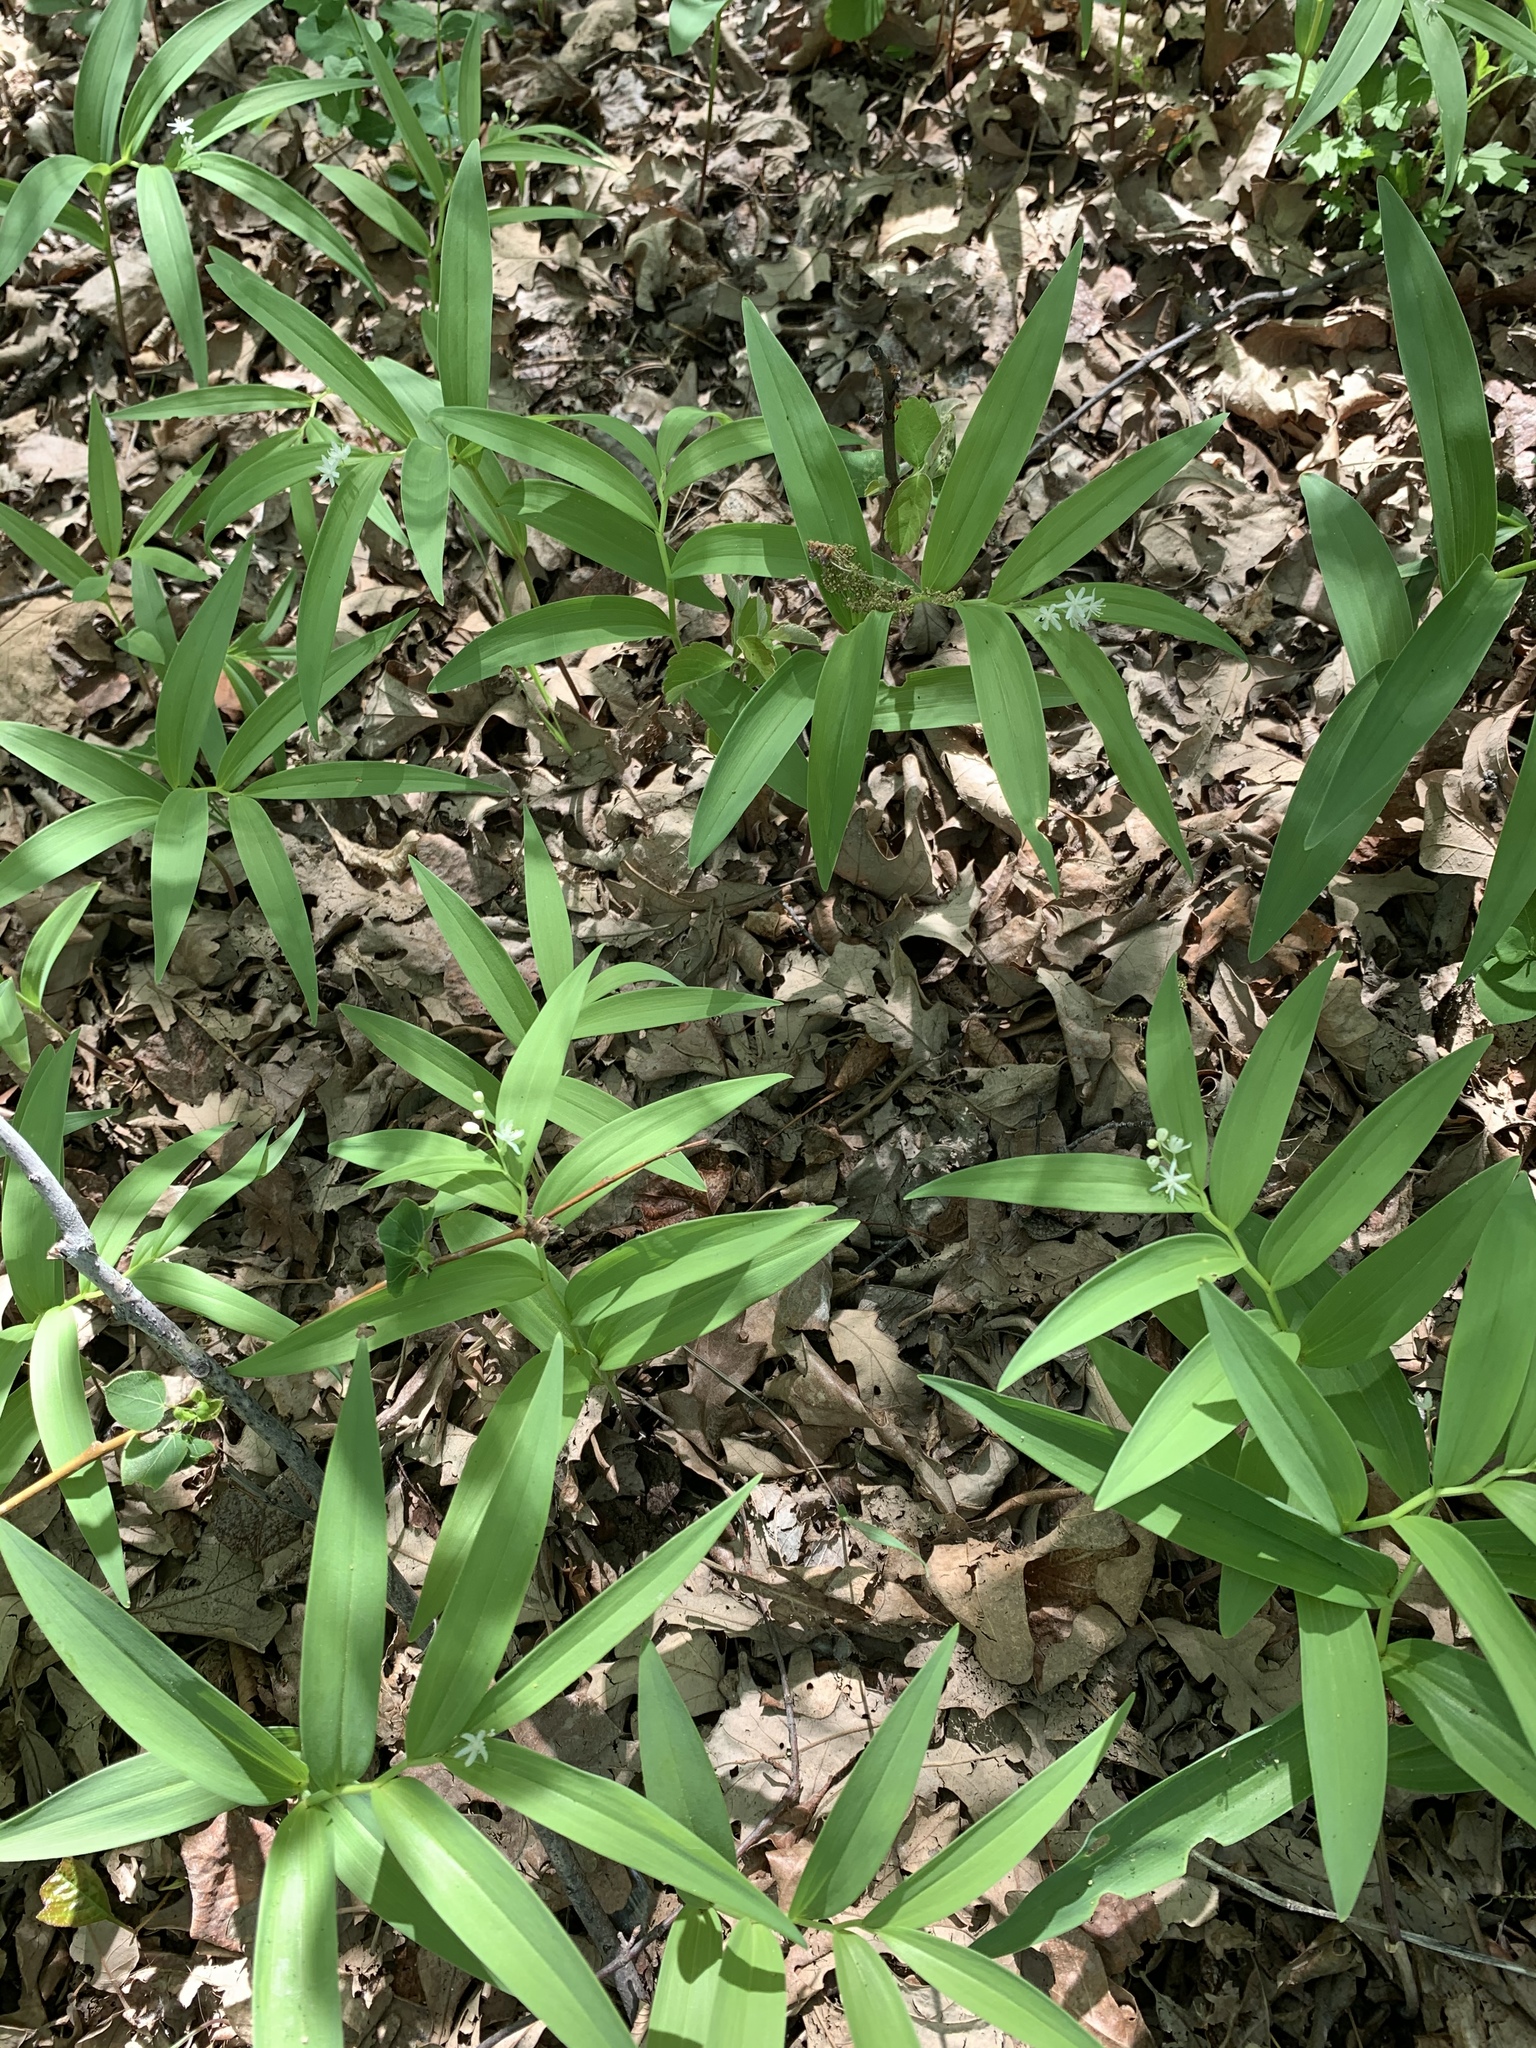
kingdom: Plantae
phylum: Tracheophyta
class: Liliopsida
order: Asparagales
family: Asparagaceae
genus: Maianthemum
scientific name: Maianthemum stellatum
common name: Little false solomon's seal
